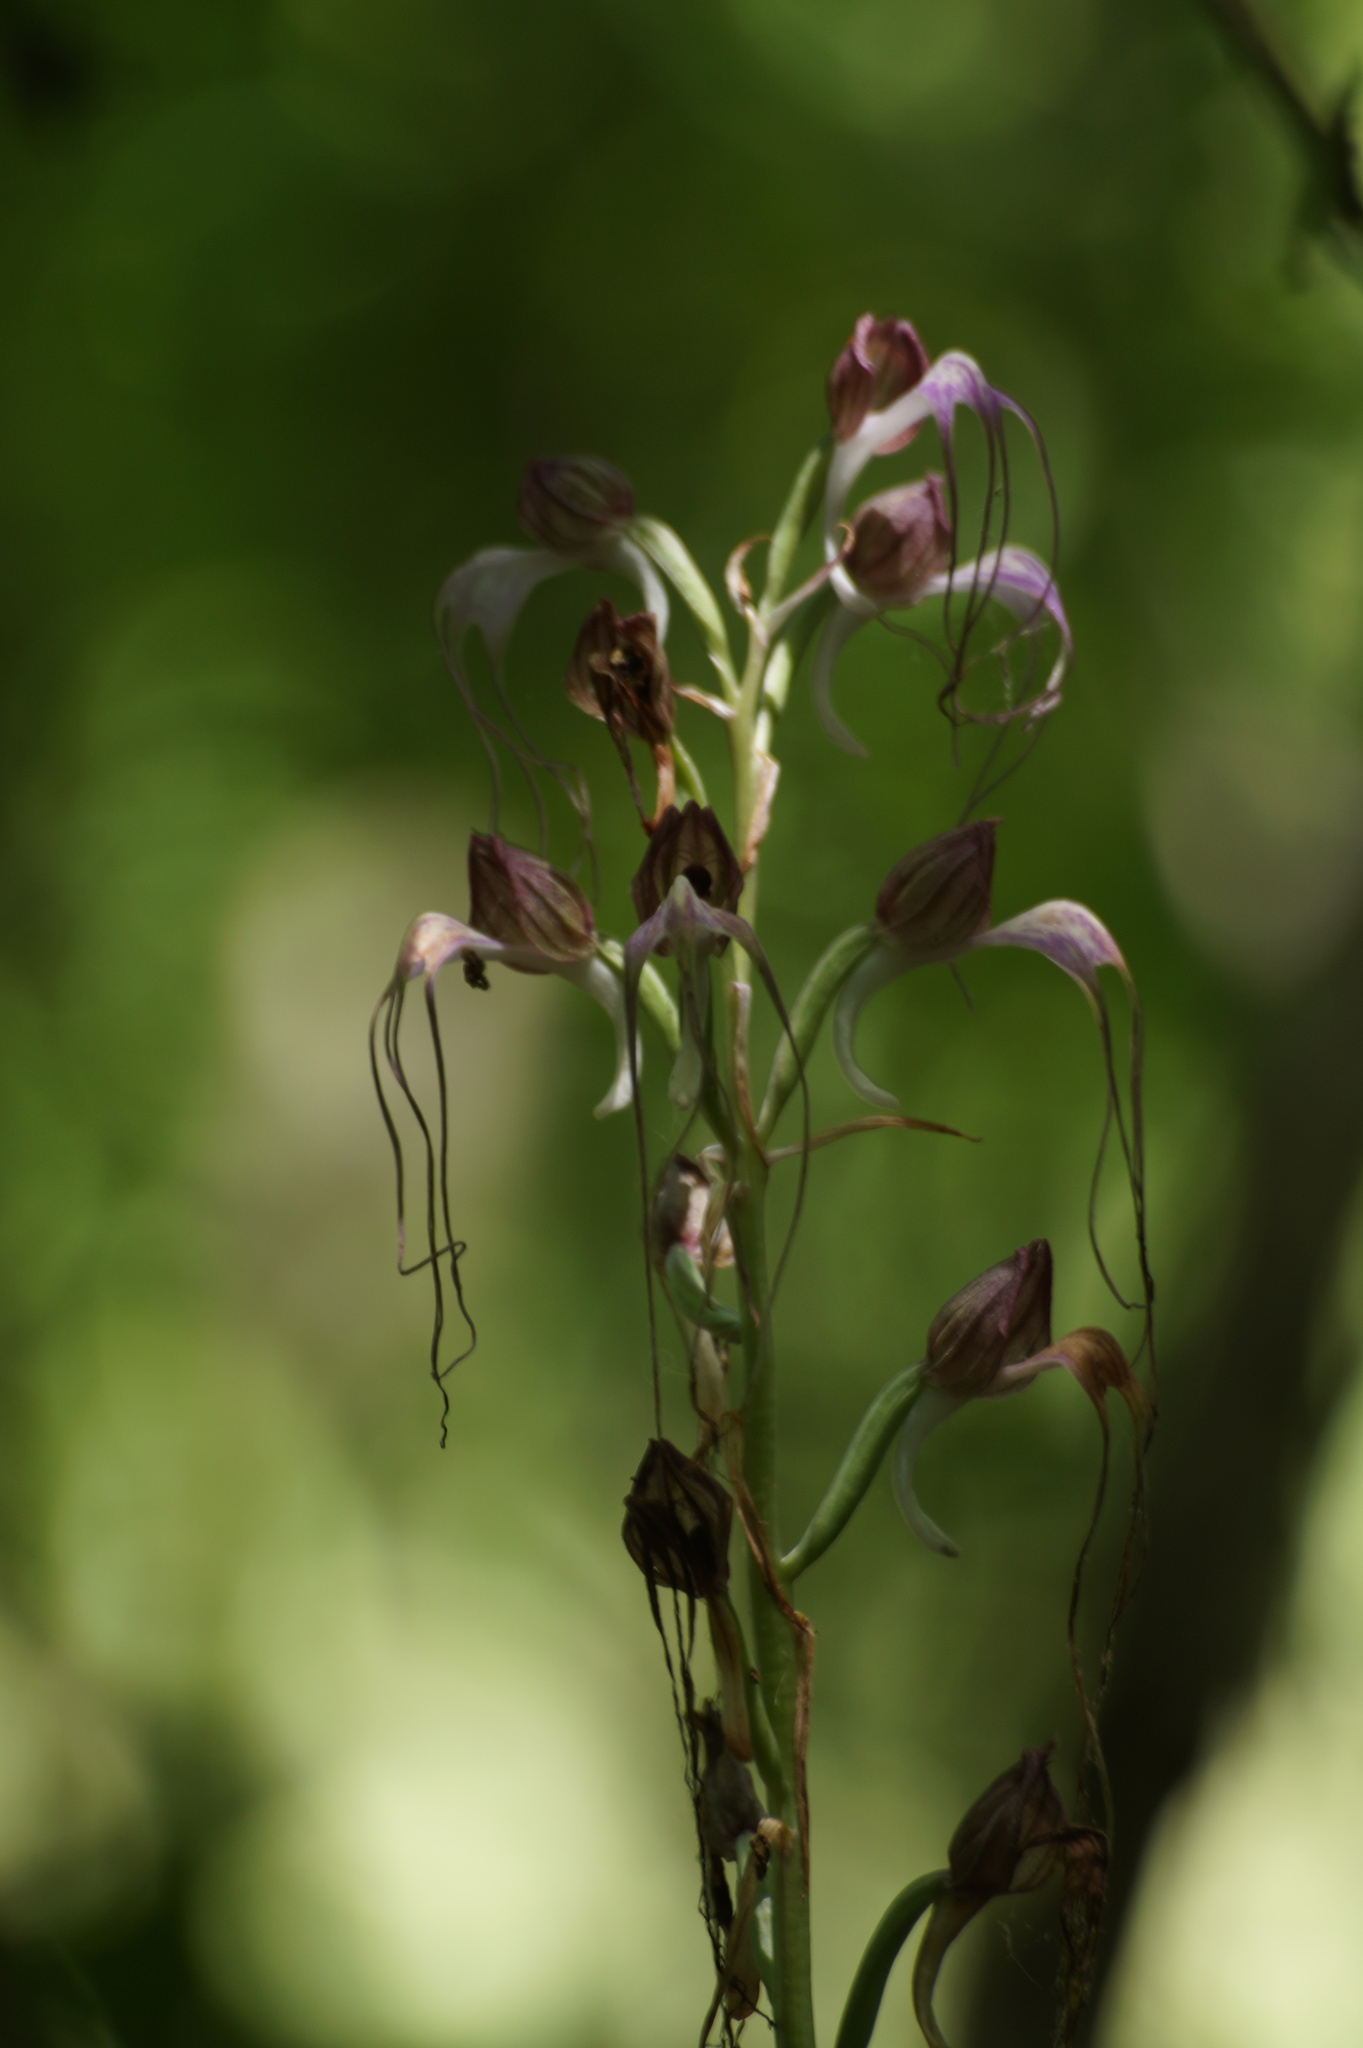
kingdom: Plantae
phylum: Tracheophyta
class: Liliopsida
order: Asparagales
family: Orchidaceae
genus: Himantoglossum
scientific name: Himantoglossum comperianum
